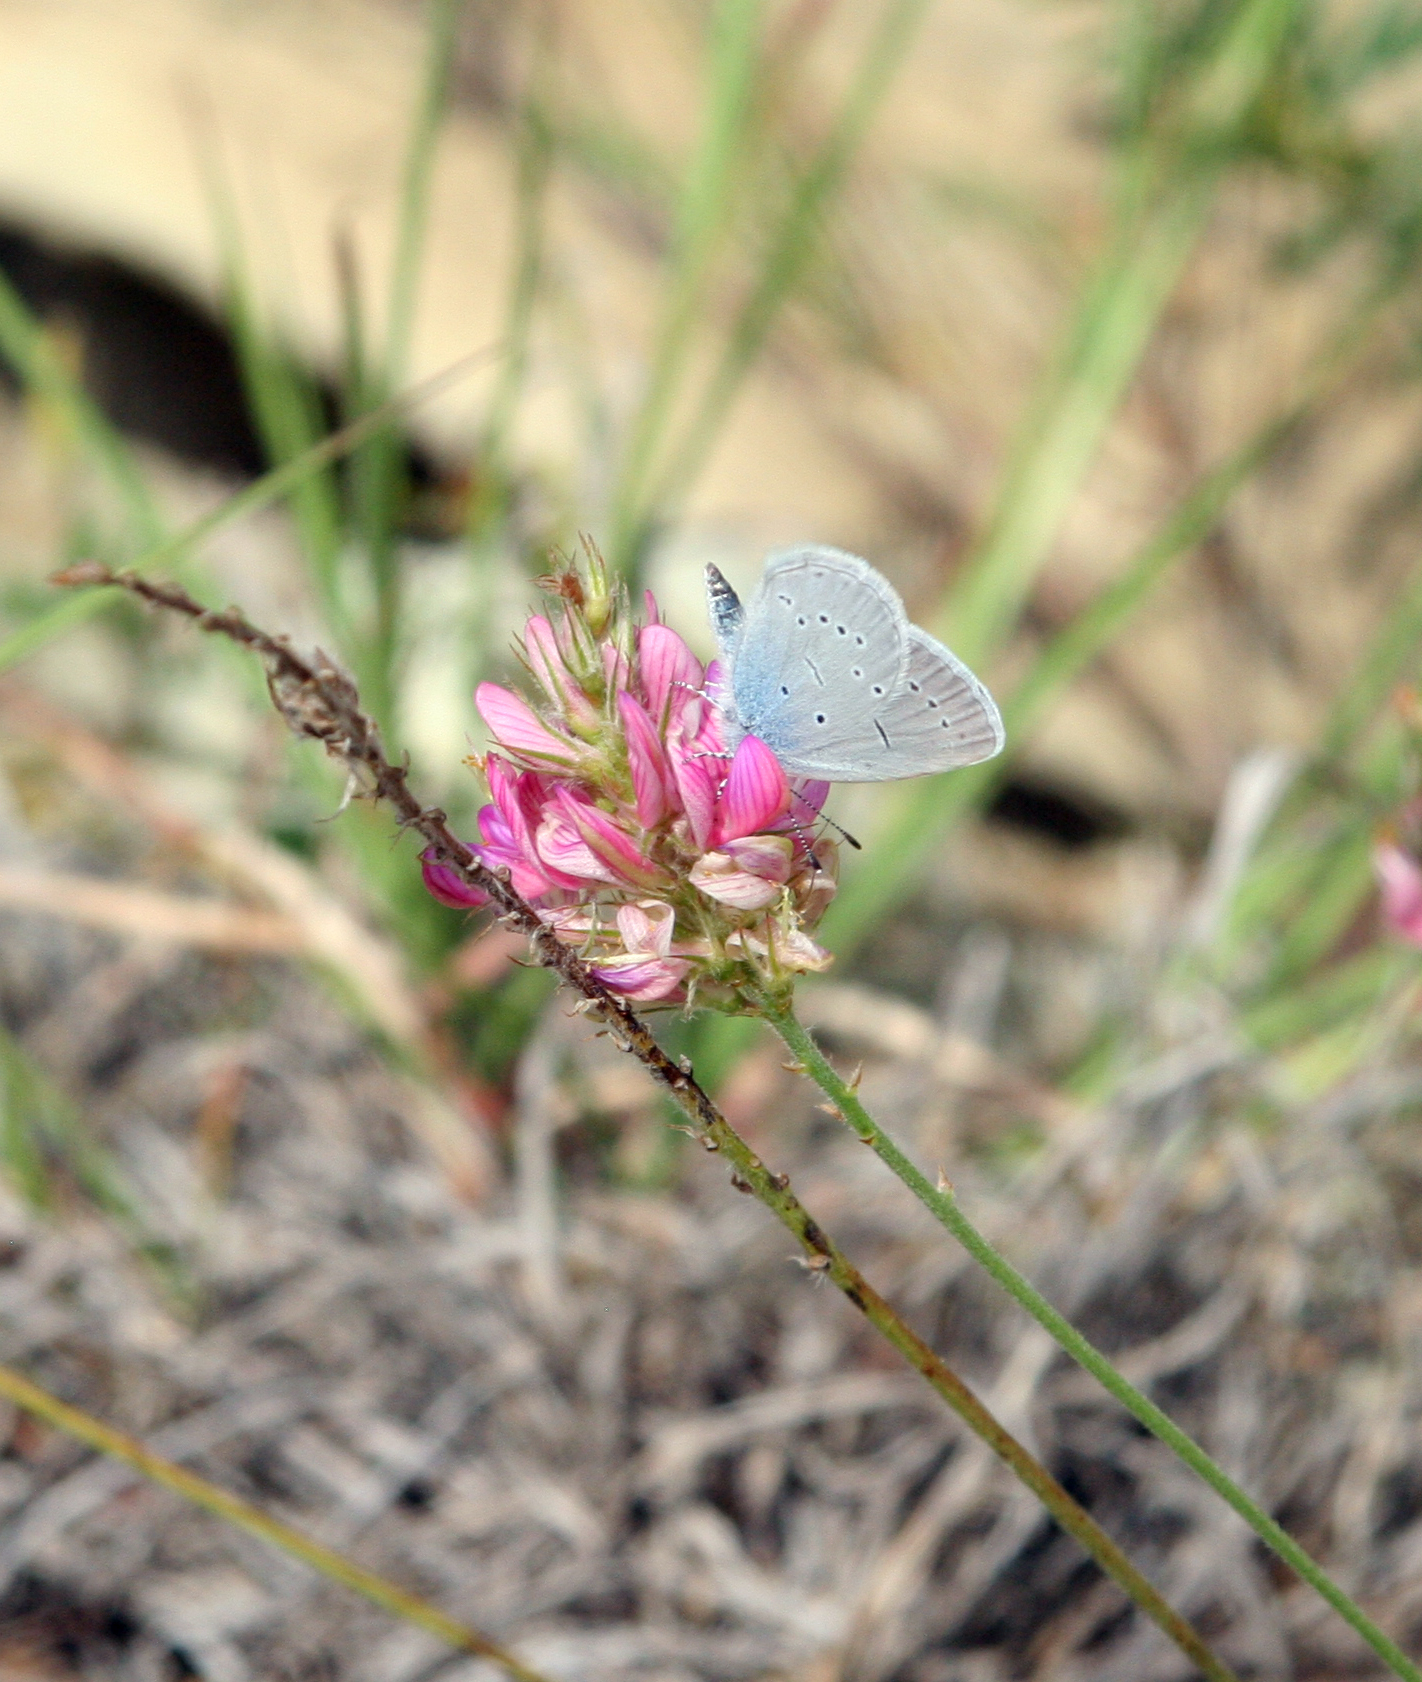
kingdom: Plantae
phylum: Tracheophyta
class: Magnoliopsida
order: Fabales
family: Fabaceae
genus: Onobrychis
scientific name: Onobrychis arenaria
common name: Sand esparcet
